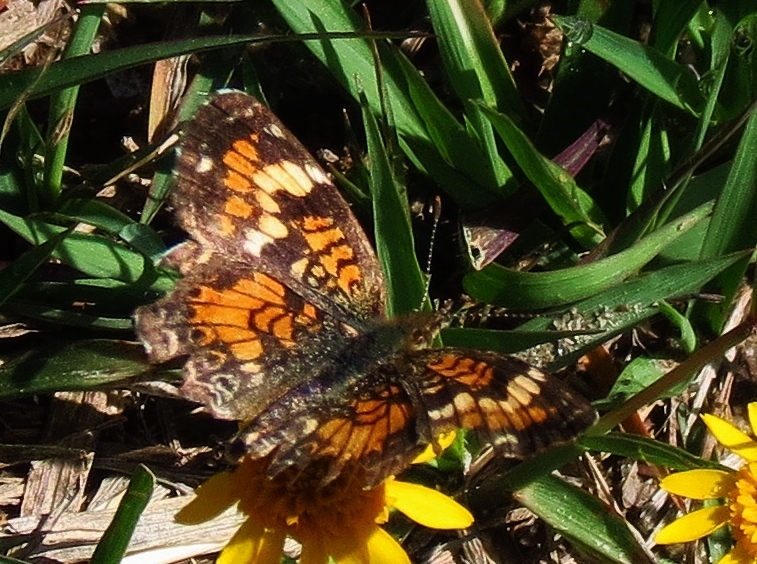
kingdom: Animalia
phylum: Arthropoda
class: Insecta
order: Lepidoptera
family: Nymphalidae
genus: Phyciodes
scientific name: Phyciodes phaon
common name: Phaon crescent
